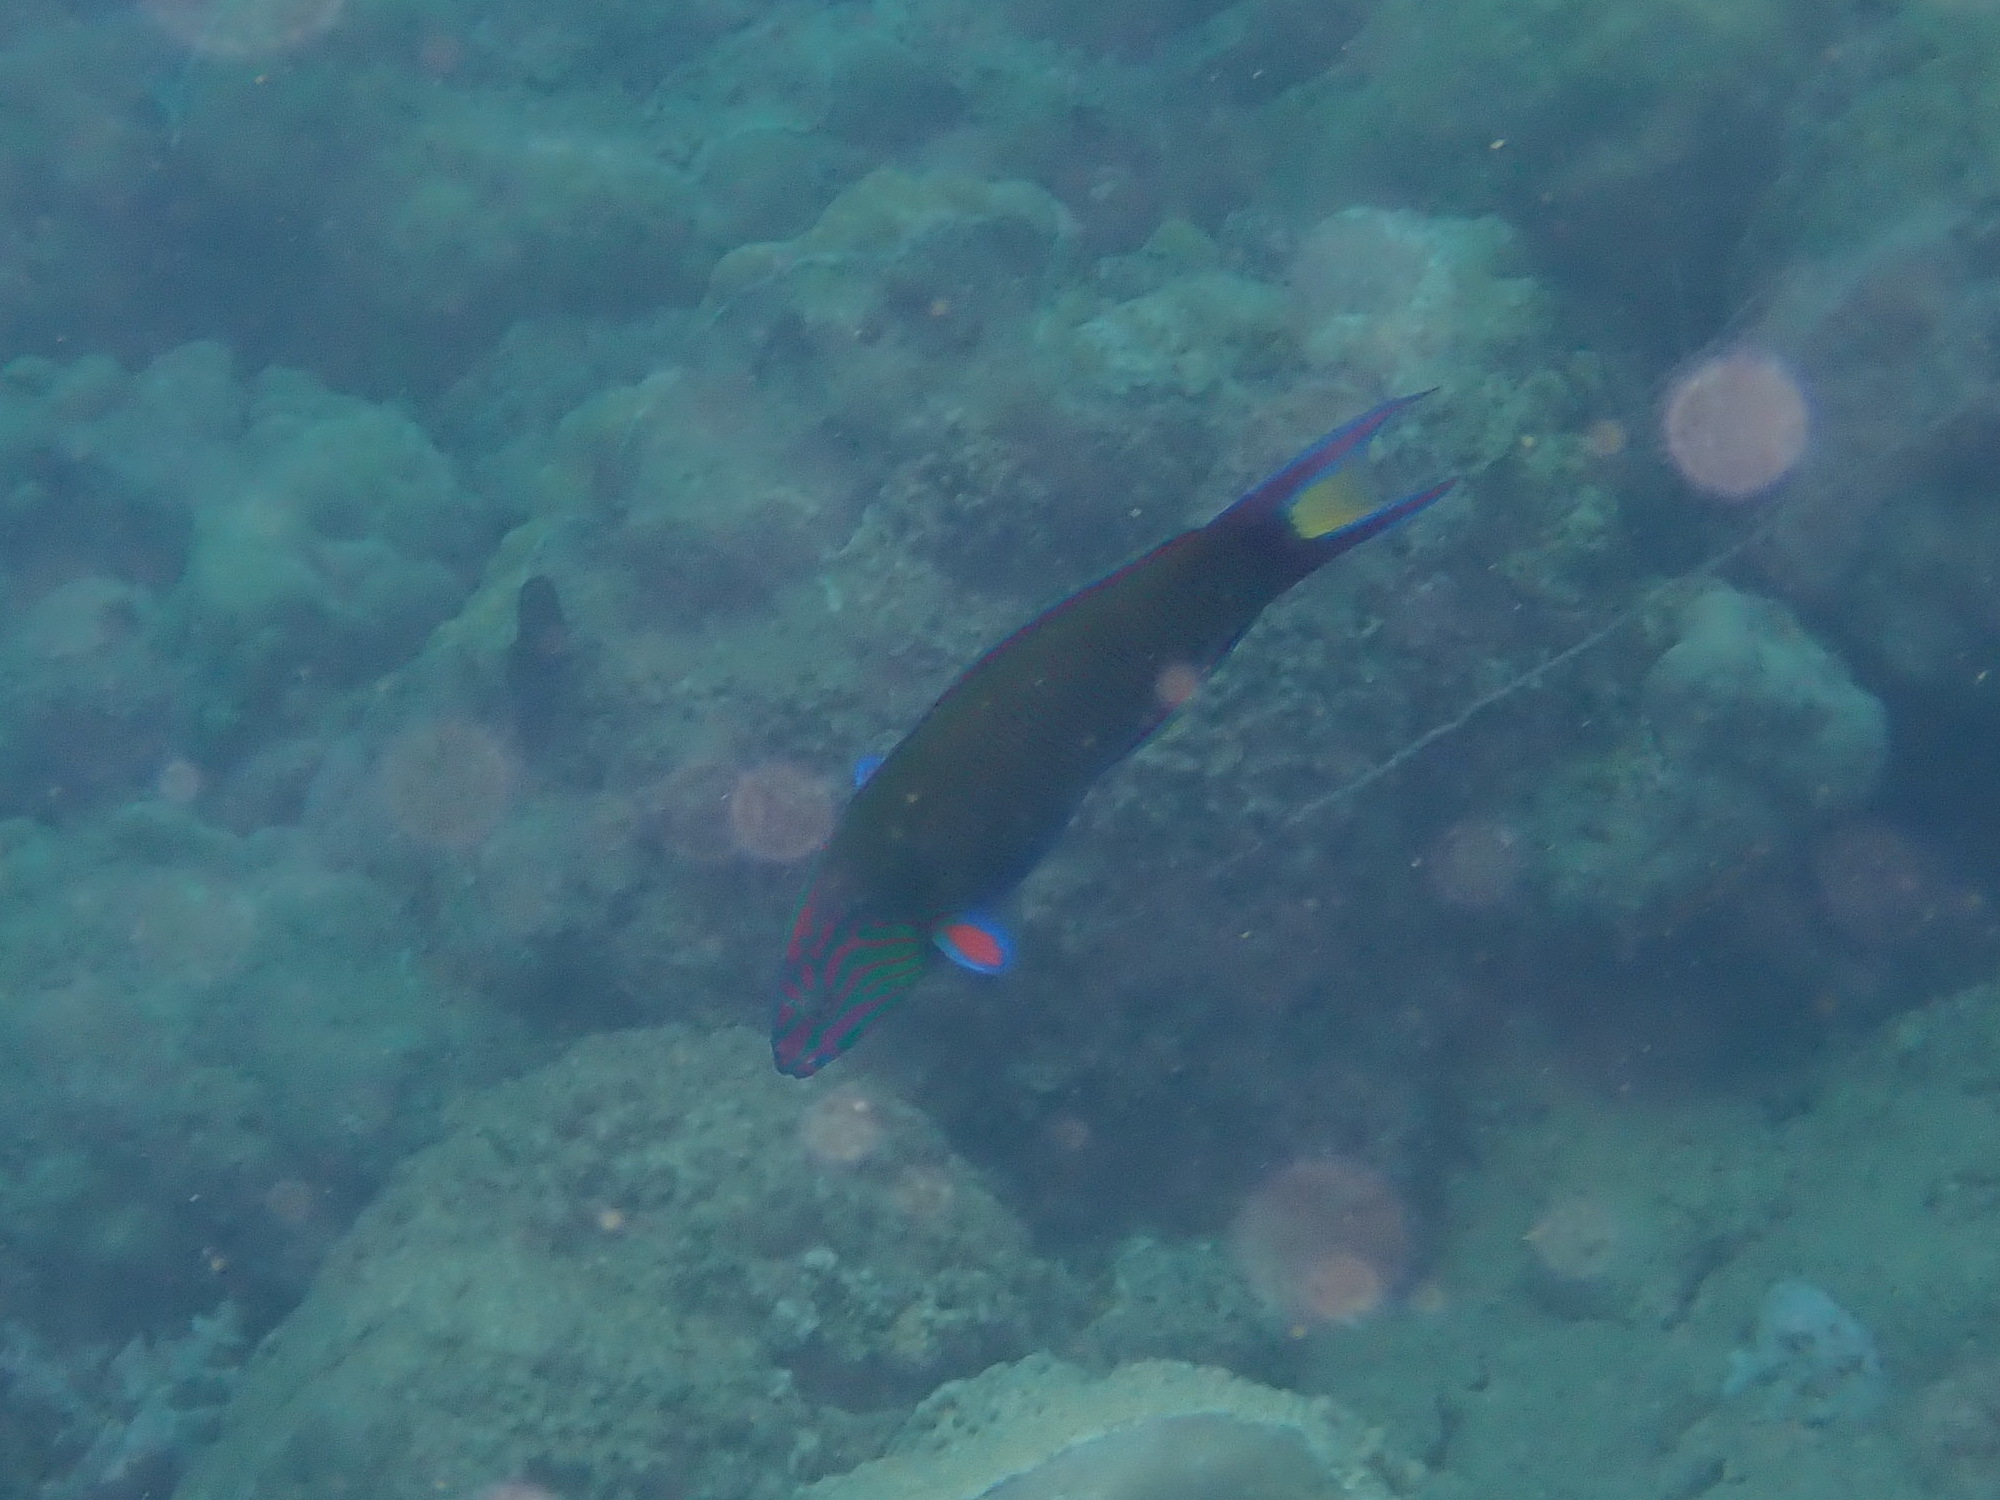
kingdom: Animalia
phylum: Chordata
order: Perciformes
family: Labridae
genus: Thalassoma
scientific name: Thalassoma lunare
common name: Blue wrasse
